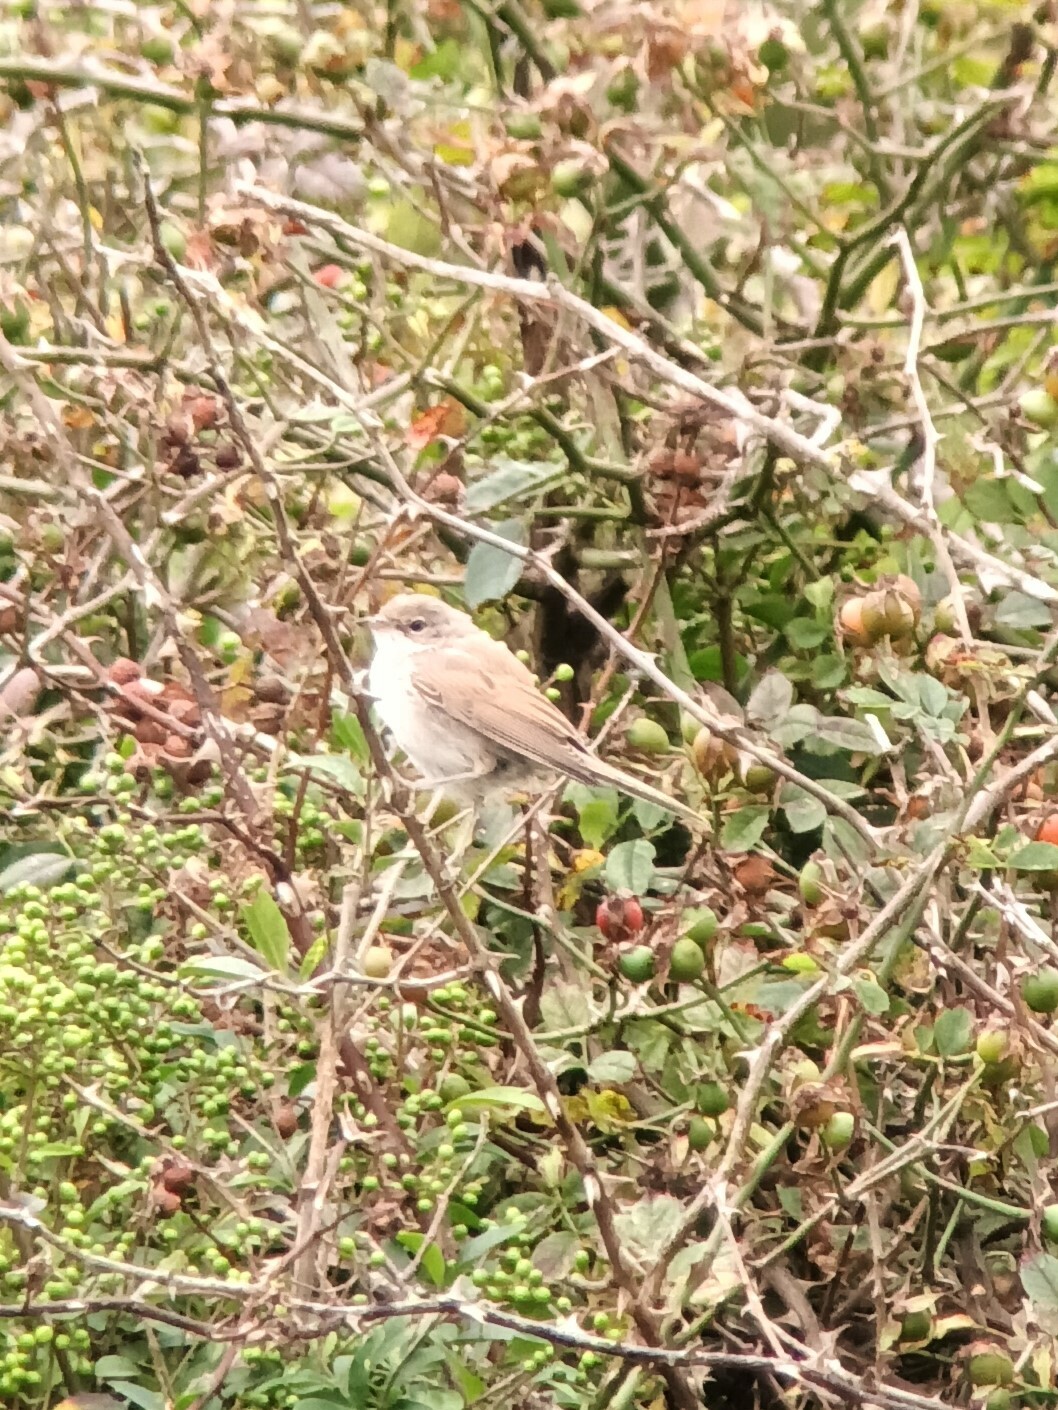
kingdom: Animalia
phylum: Chordata
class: Aves
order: Passeriformes
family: Sylviidae
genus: Sylvia
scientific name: Sylvia communis
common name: Common whitethroat
